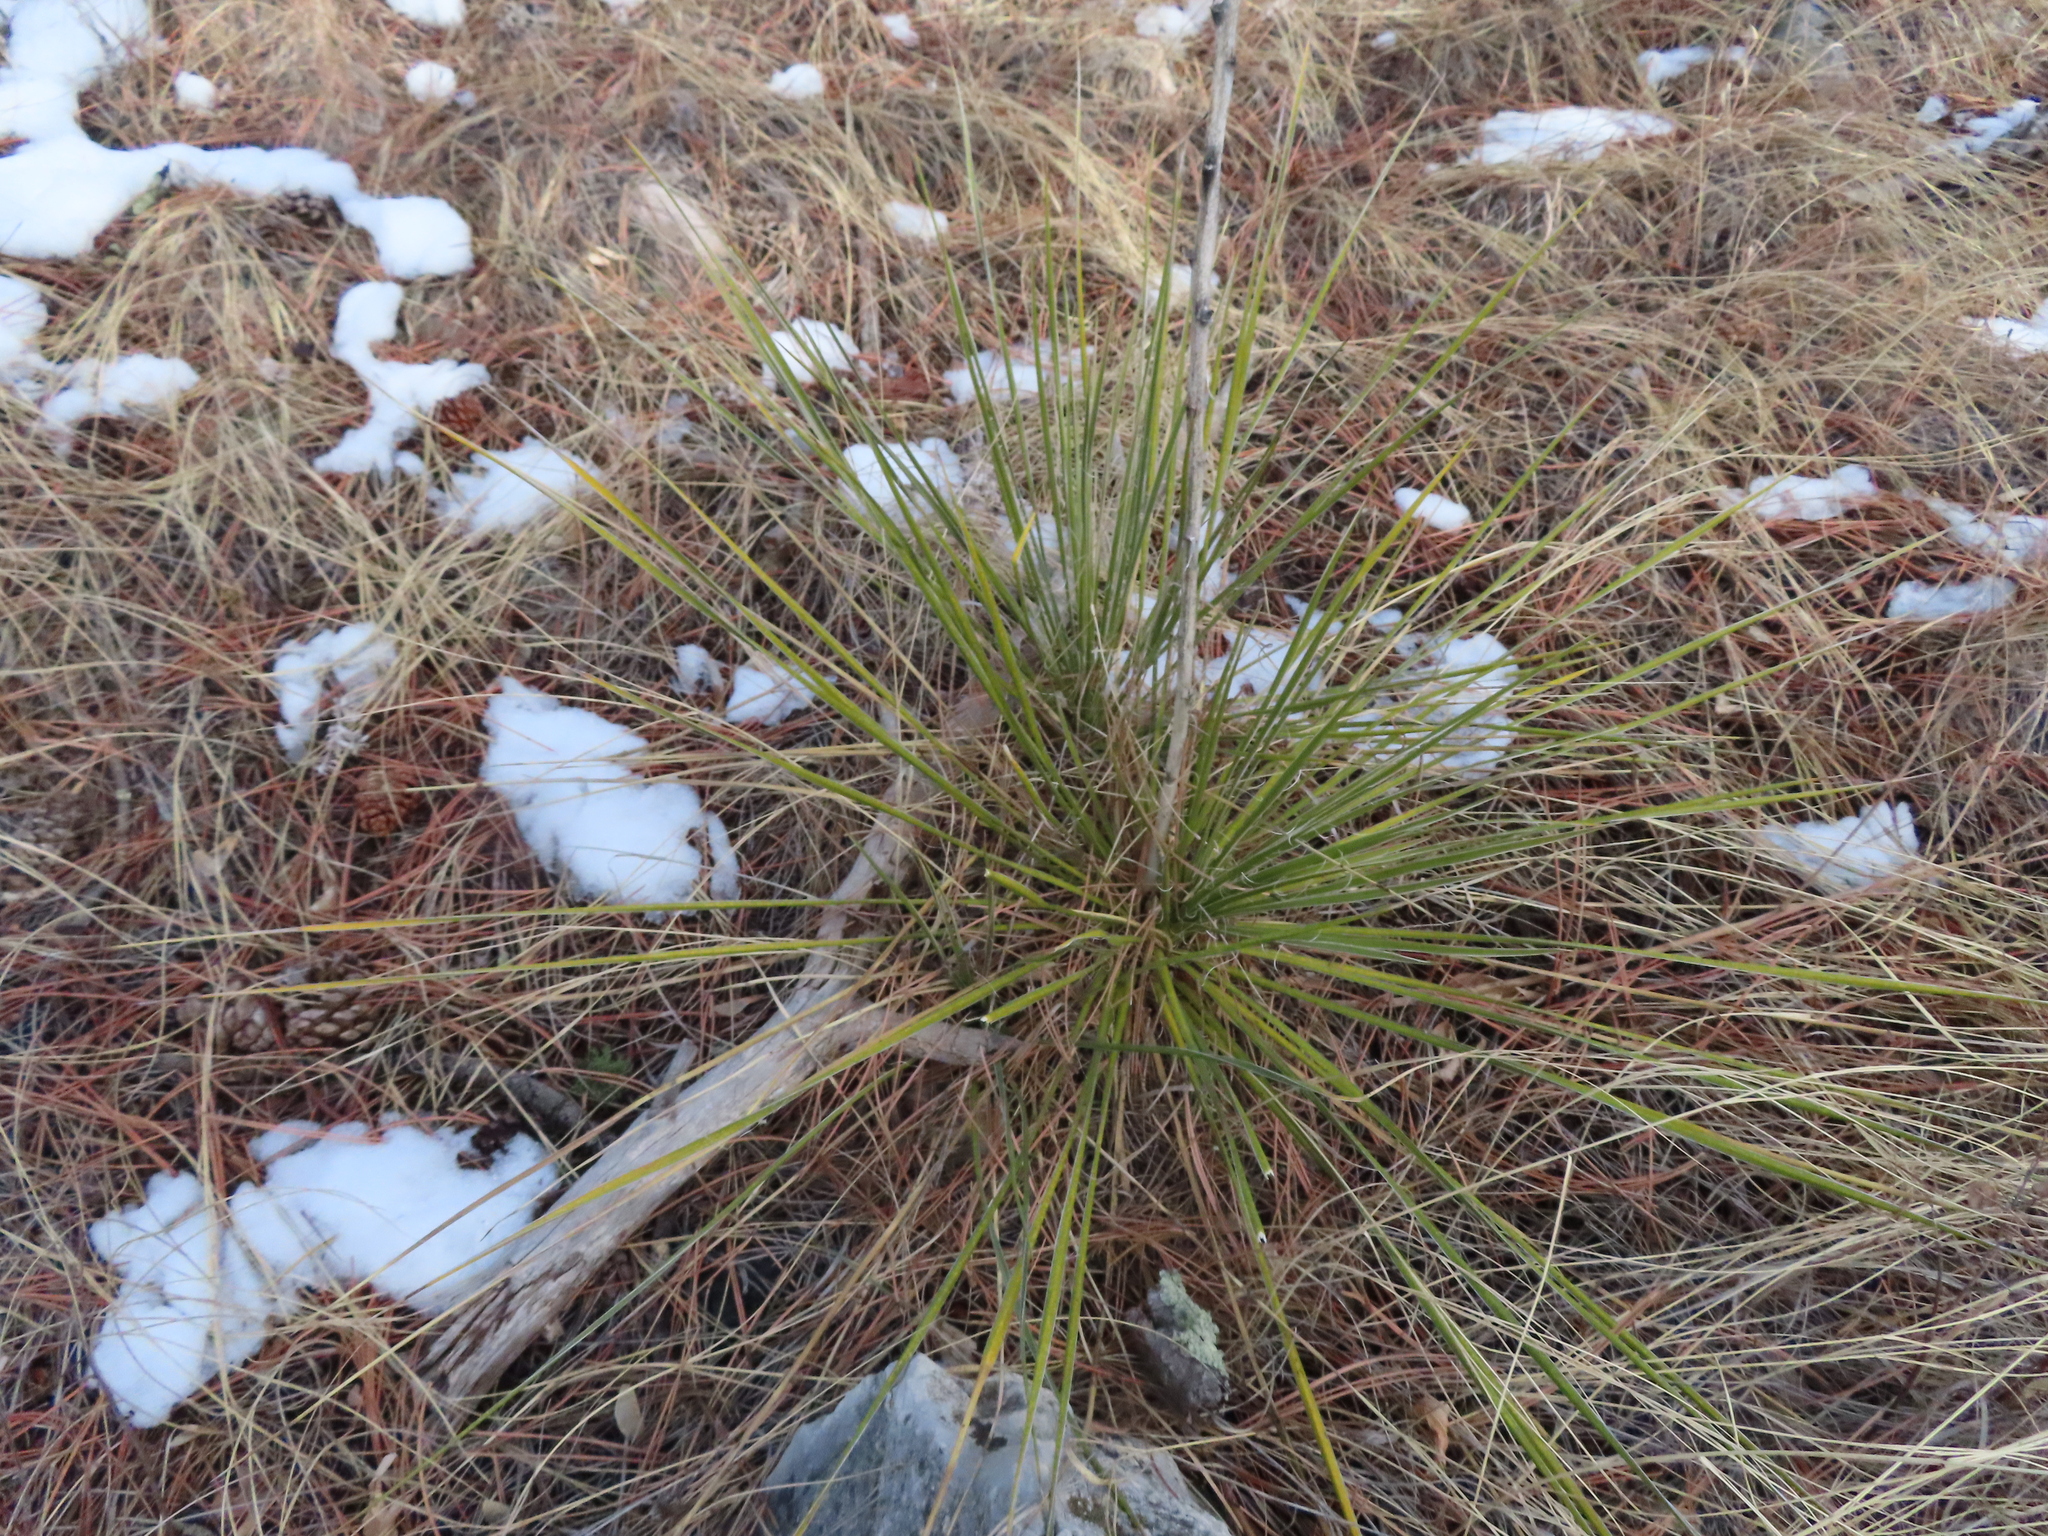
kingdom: Plantae
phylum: Tracheophyta
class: Liliopsida
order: Asparagales
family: Asparagaceae
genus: Yucca
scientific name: Yucca glauca
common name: Great plains yucca
